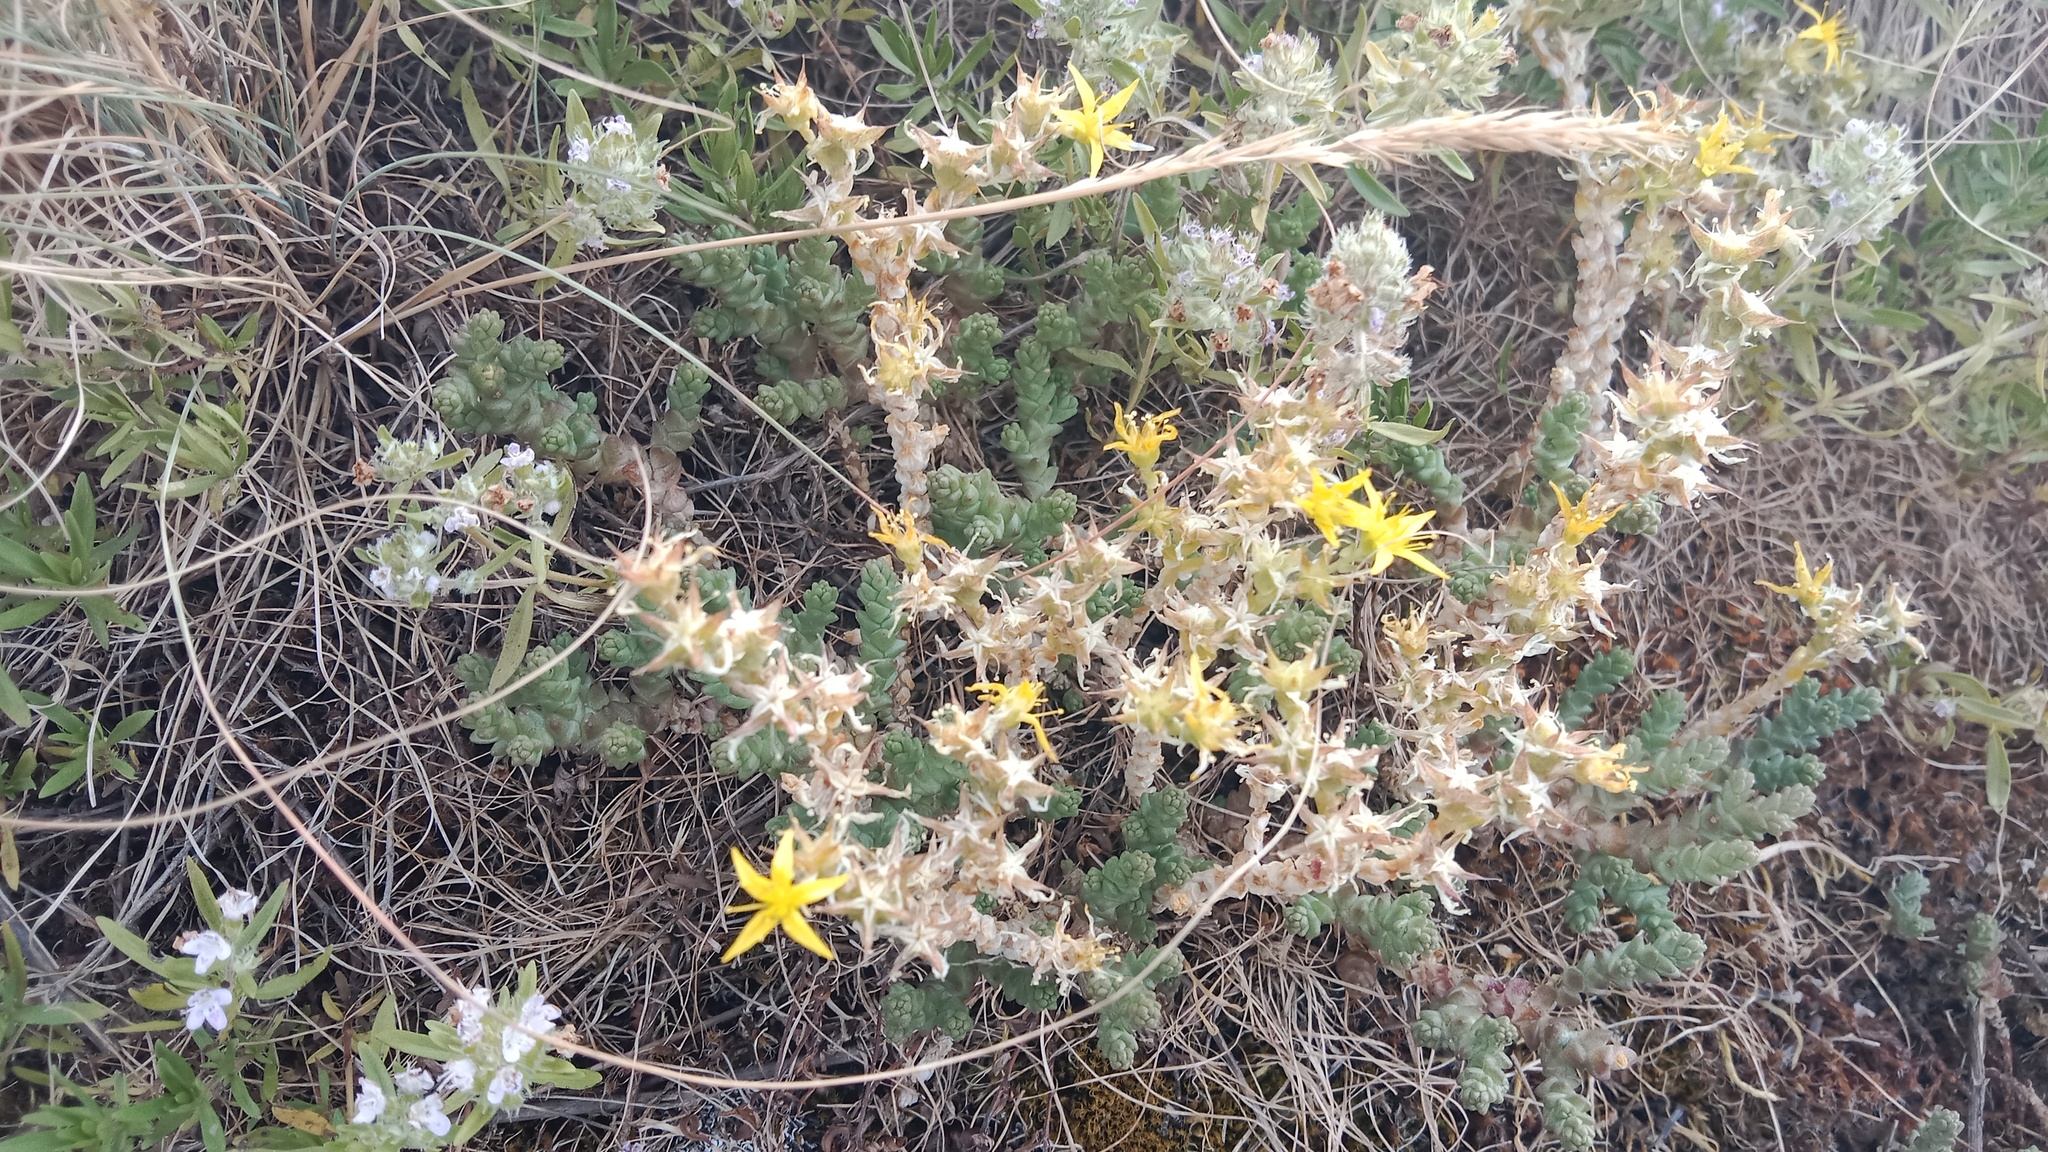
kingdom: Plantae
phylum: Tracheophyta
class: Magnoliopsida
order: Saxifragales
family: Crassulaceae
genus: Sedum
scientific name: Sedum acre
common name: Biting stonecrop
